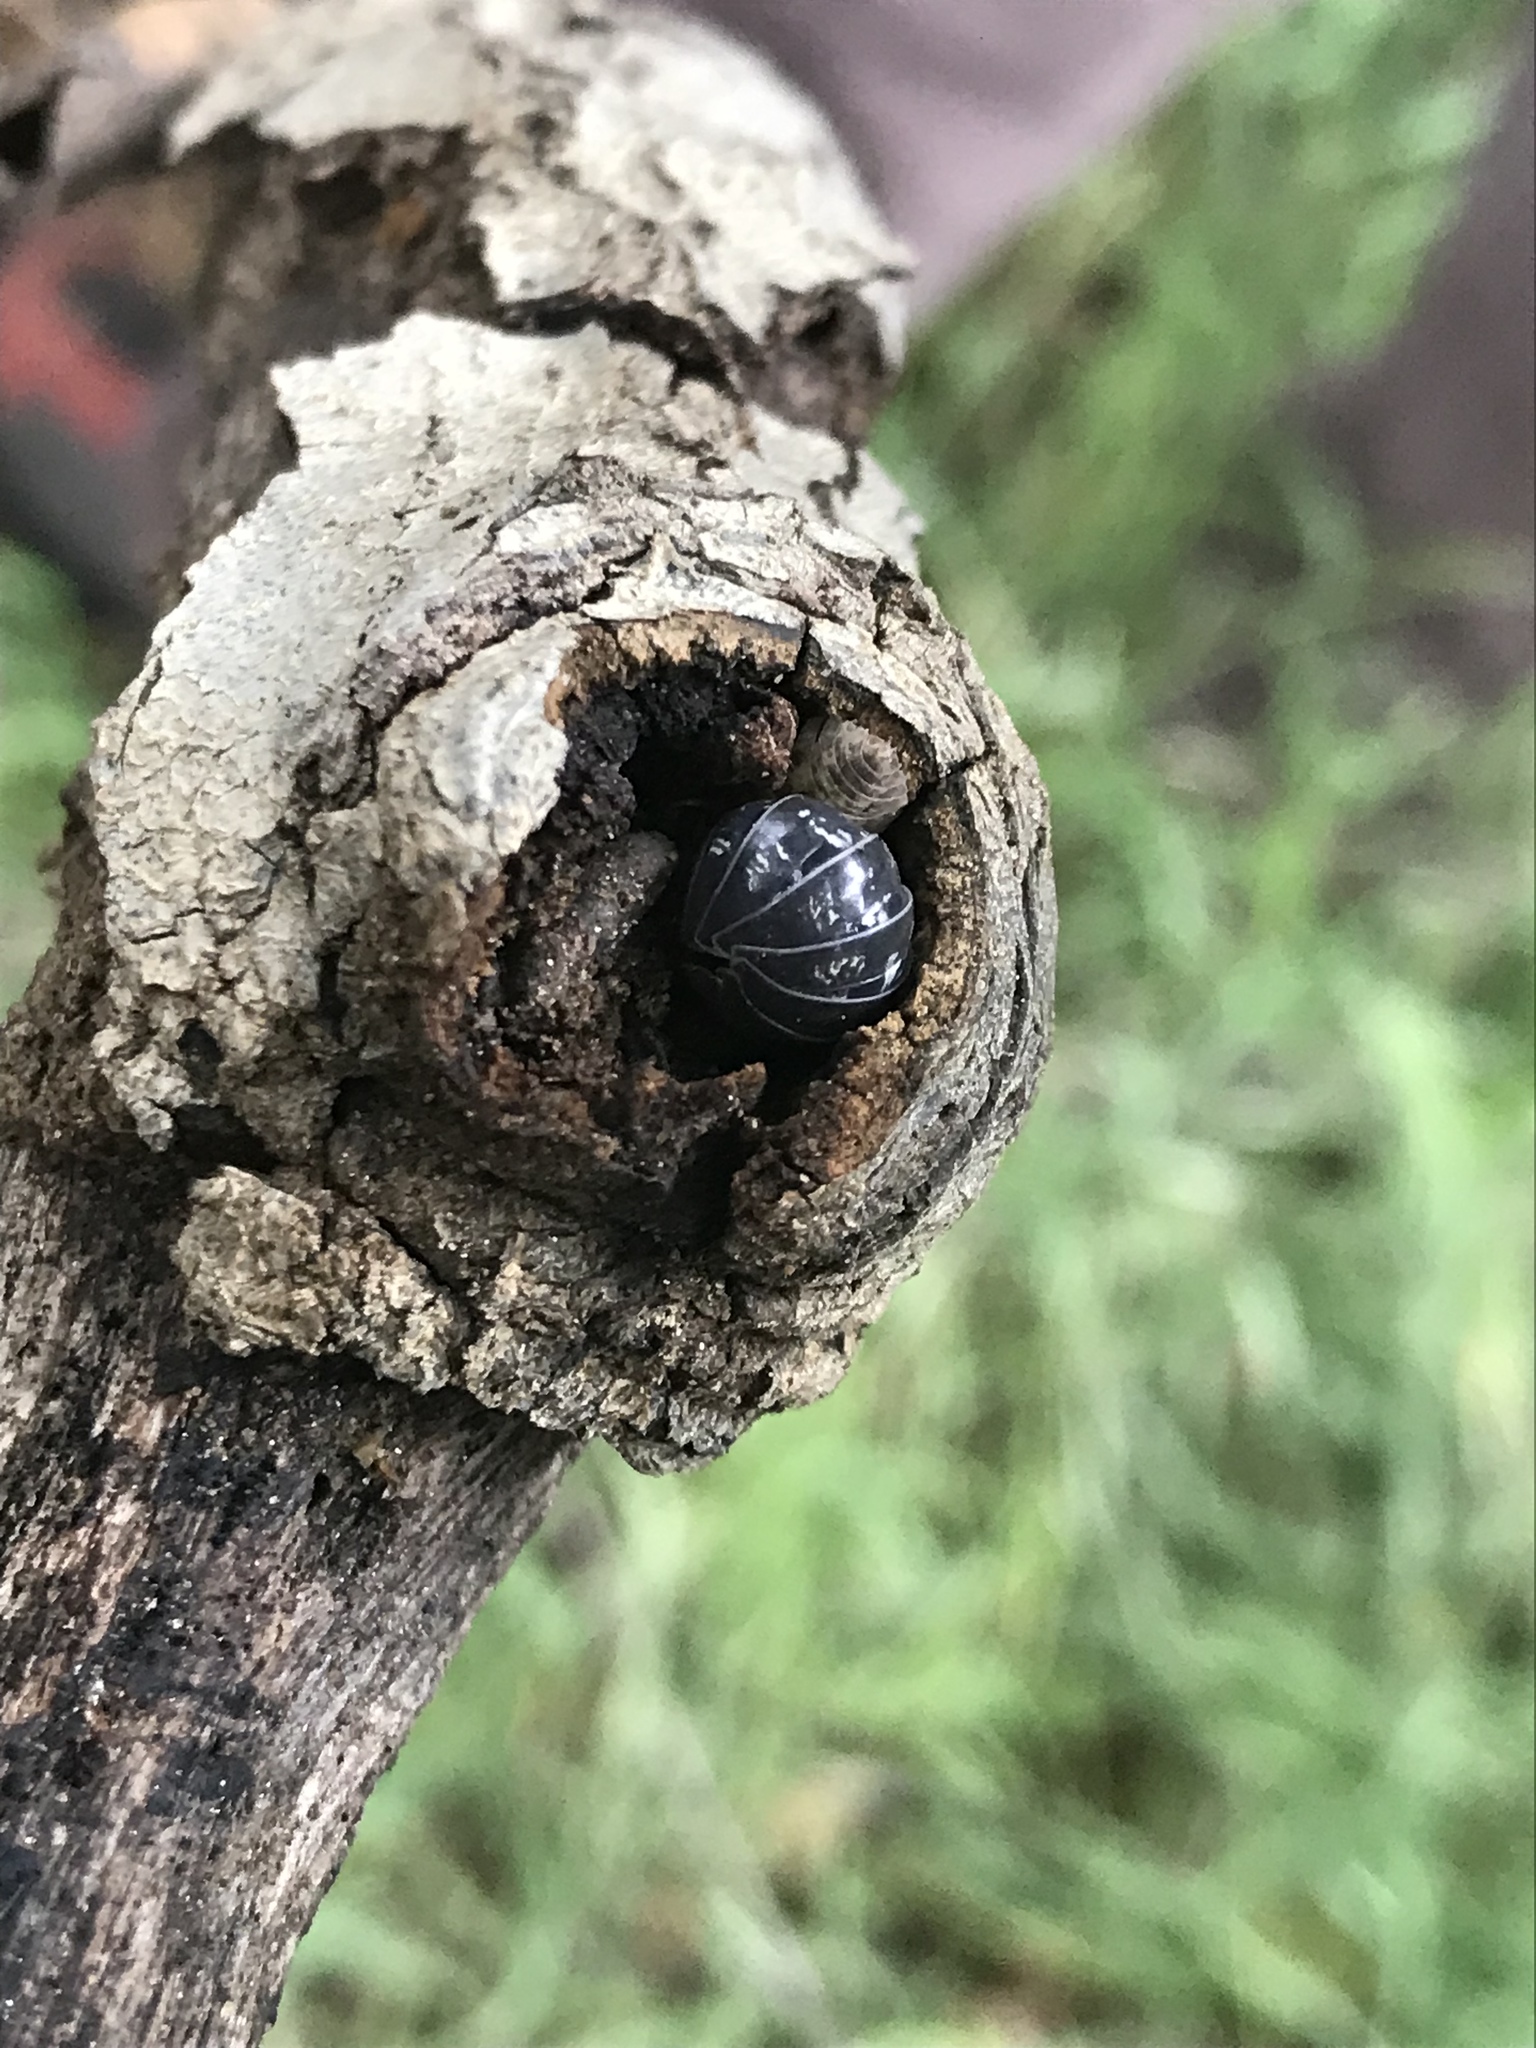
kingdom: Animalia
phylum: Arthropoda
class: Malacostraca
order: Isopoda
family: Armadillidiidae
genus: Armadillidium
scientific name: Armadillidium vulgare
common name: Common pill woodlouse
